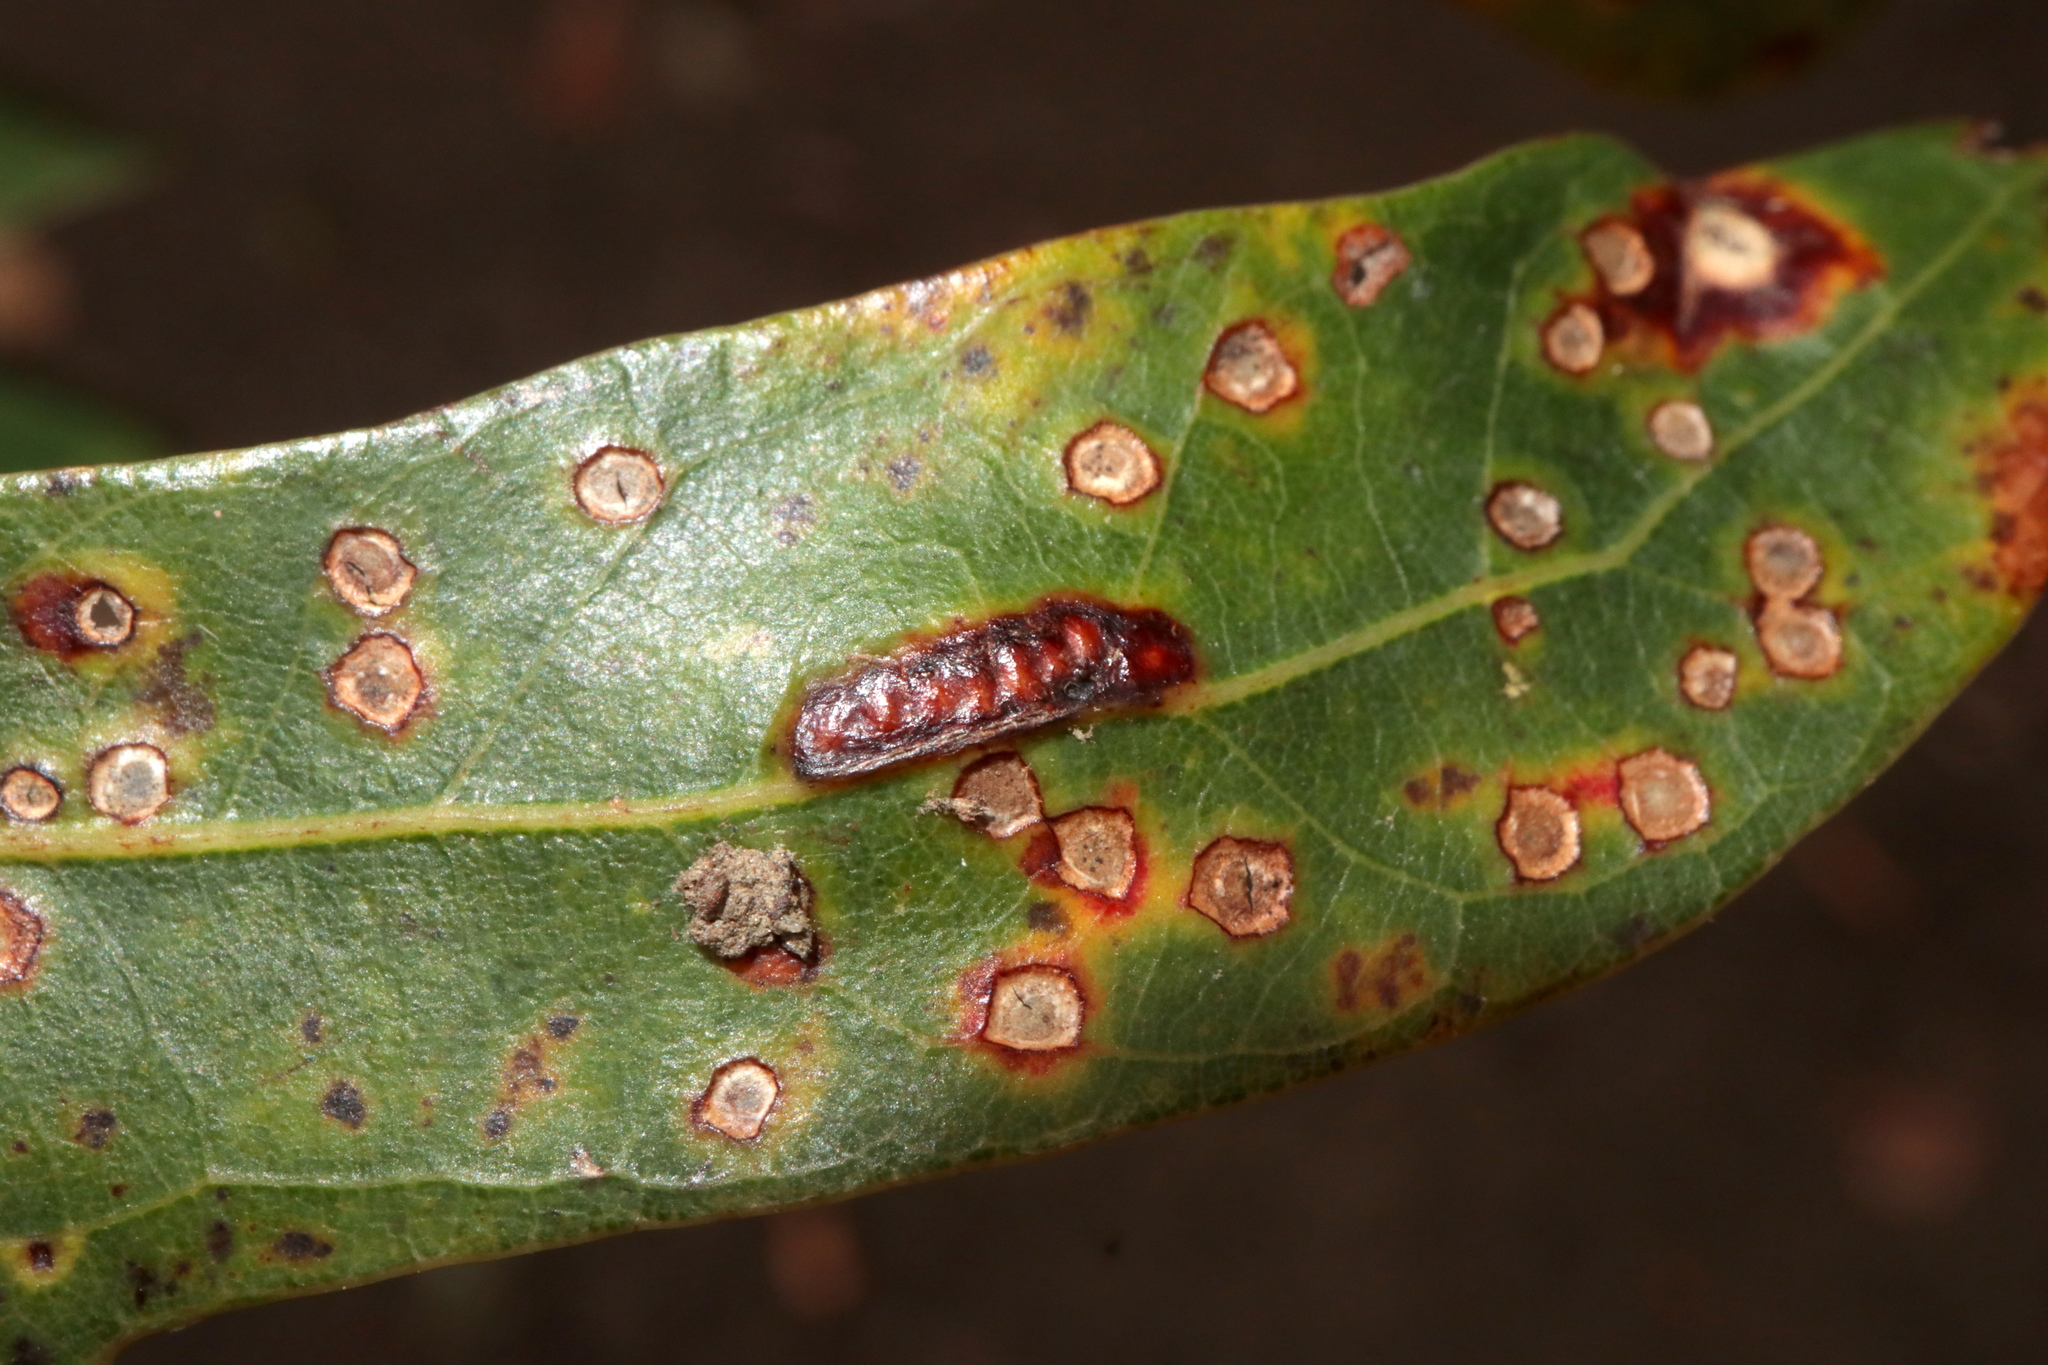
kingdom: Animalia
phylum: Arthropoda
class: Insecta
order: Hymenoptera
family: Cynipidae
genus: Neuroterus
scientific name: Neuroterus niger
